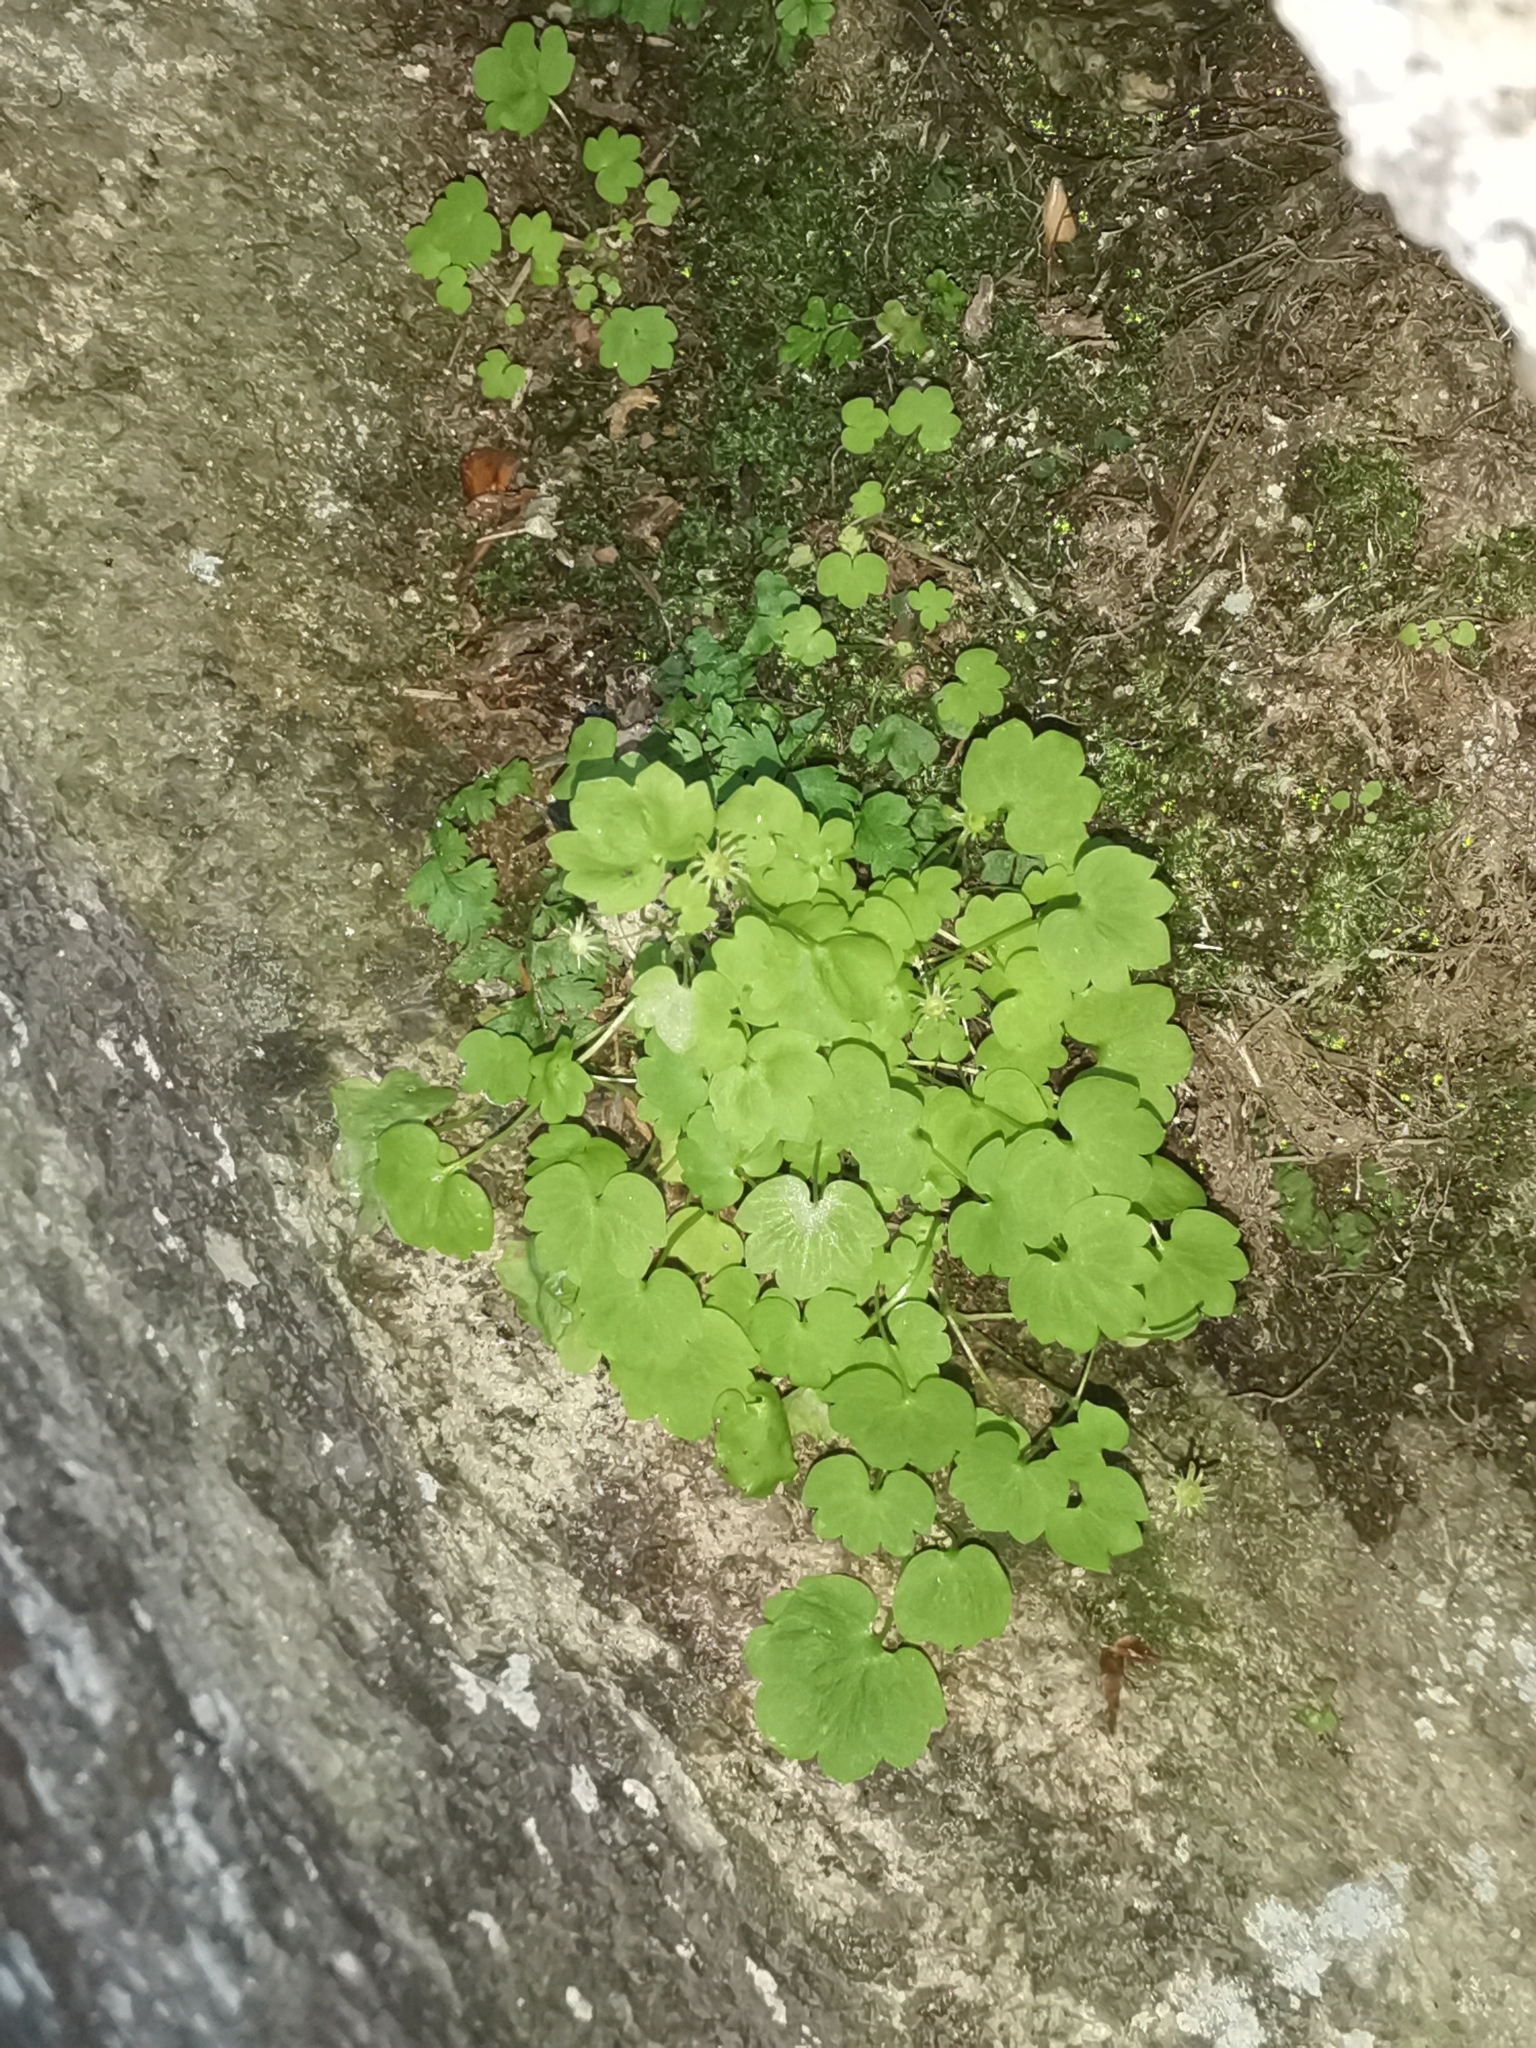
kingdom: Plantae
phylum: Tracheophyta
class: Magnoliopsida
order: Saxifragales
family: Saxifragaceae
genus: Saxifraga
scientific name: Saxifraga paradoxa
